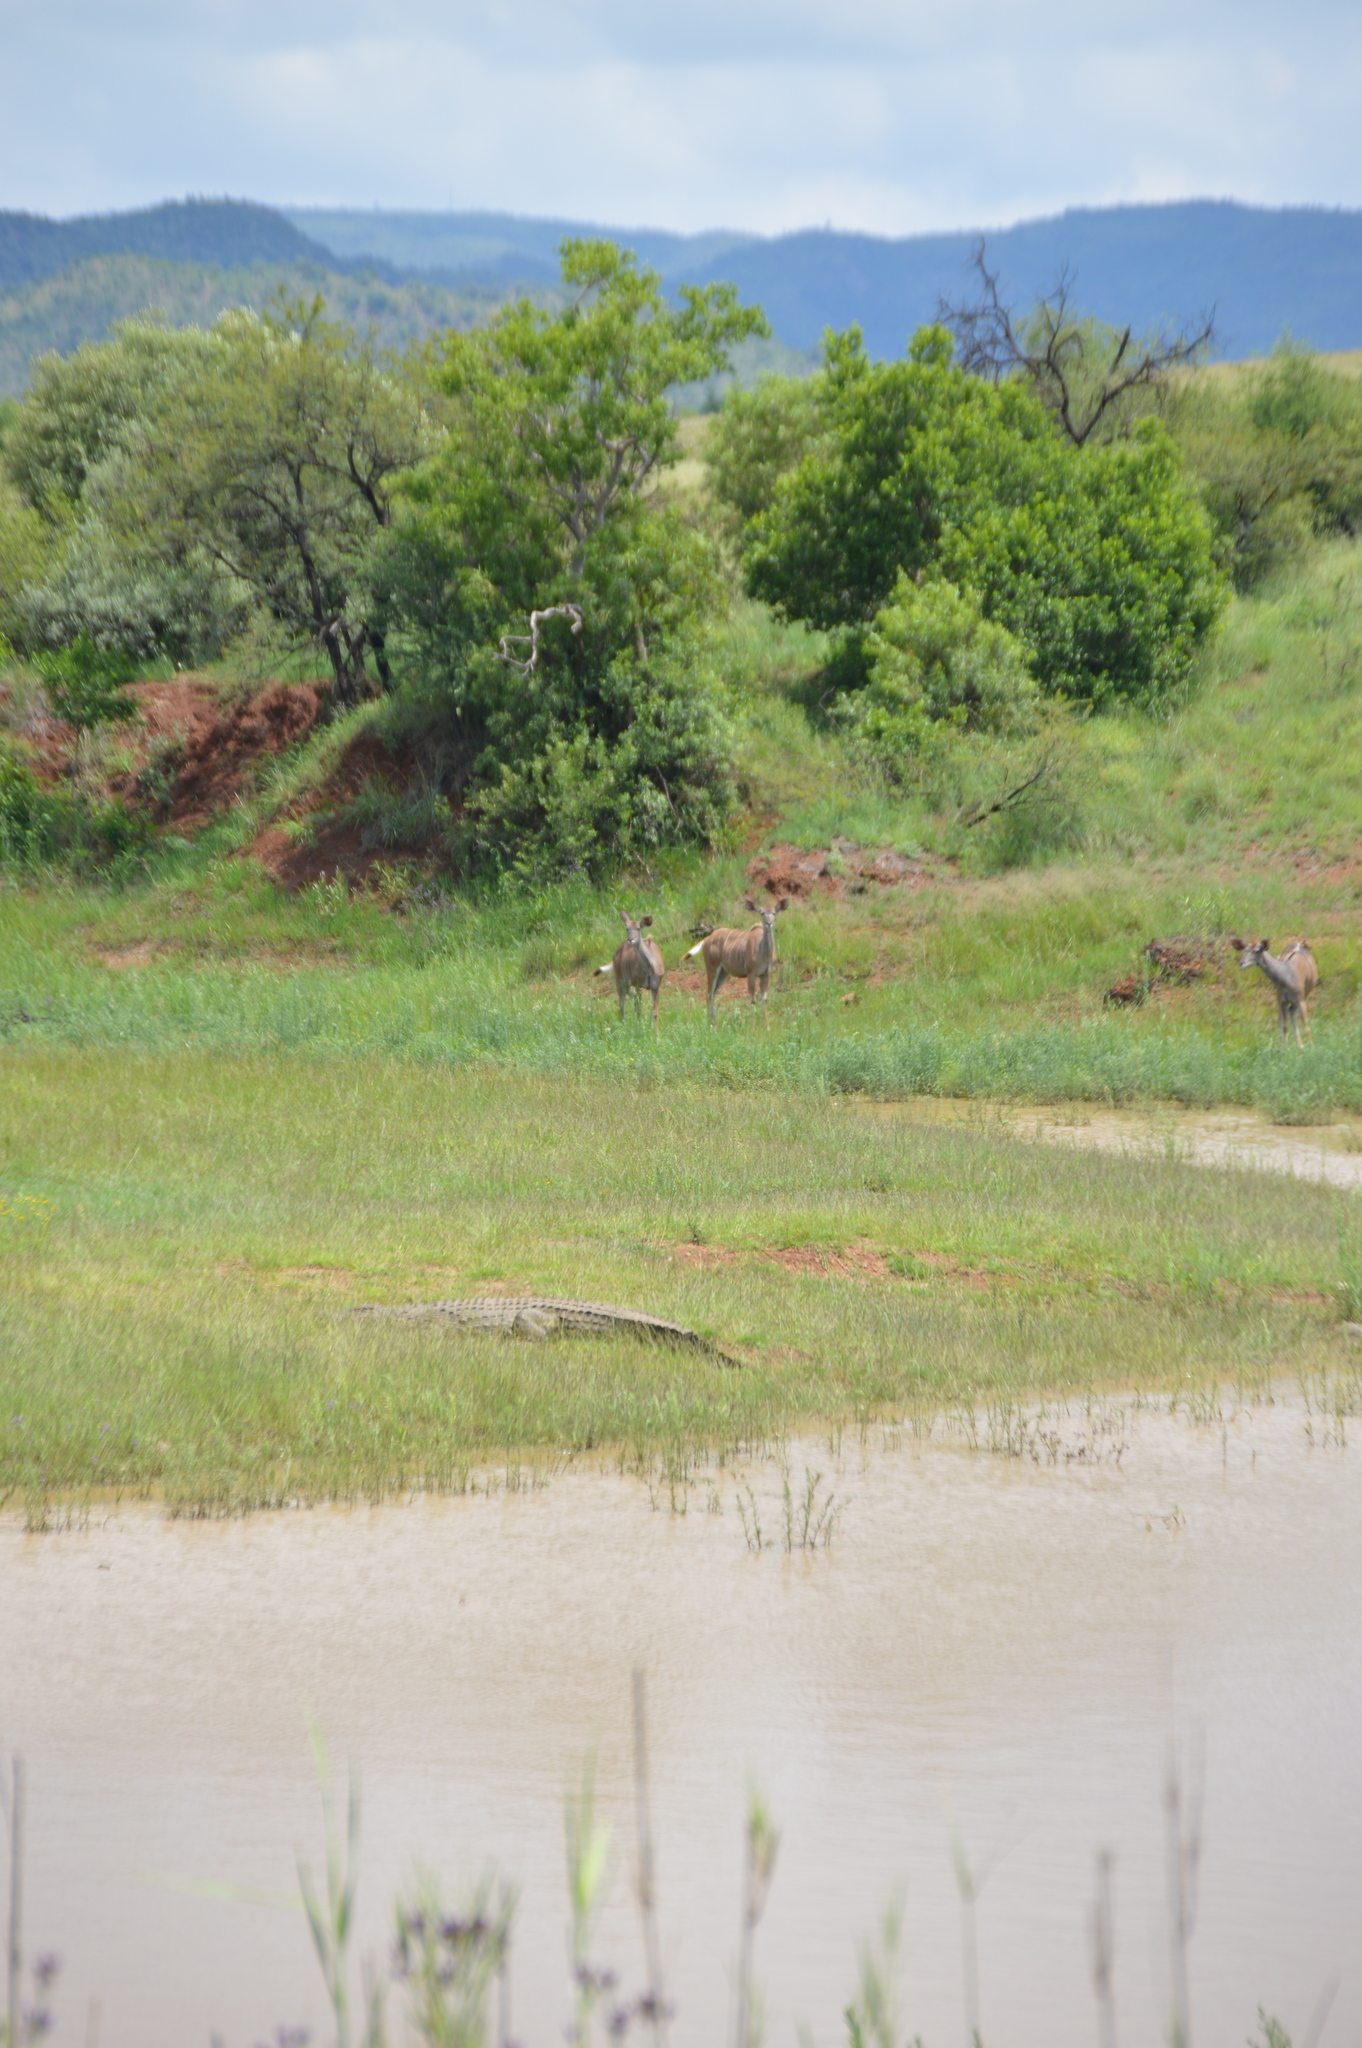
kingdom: Animalia
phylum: Chordata
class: Crocodylia
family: Crocodylidae
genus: Crocodylus
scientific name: Crocodylus niloticus
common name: Nile crocodile
